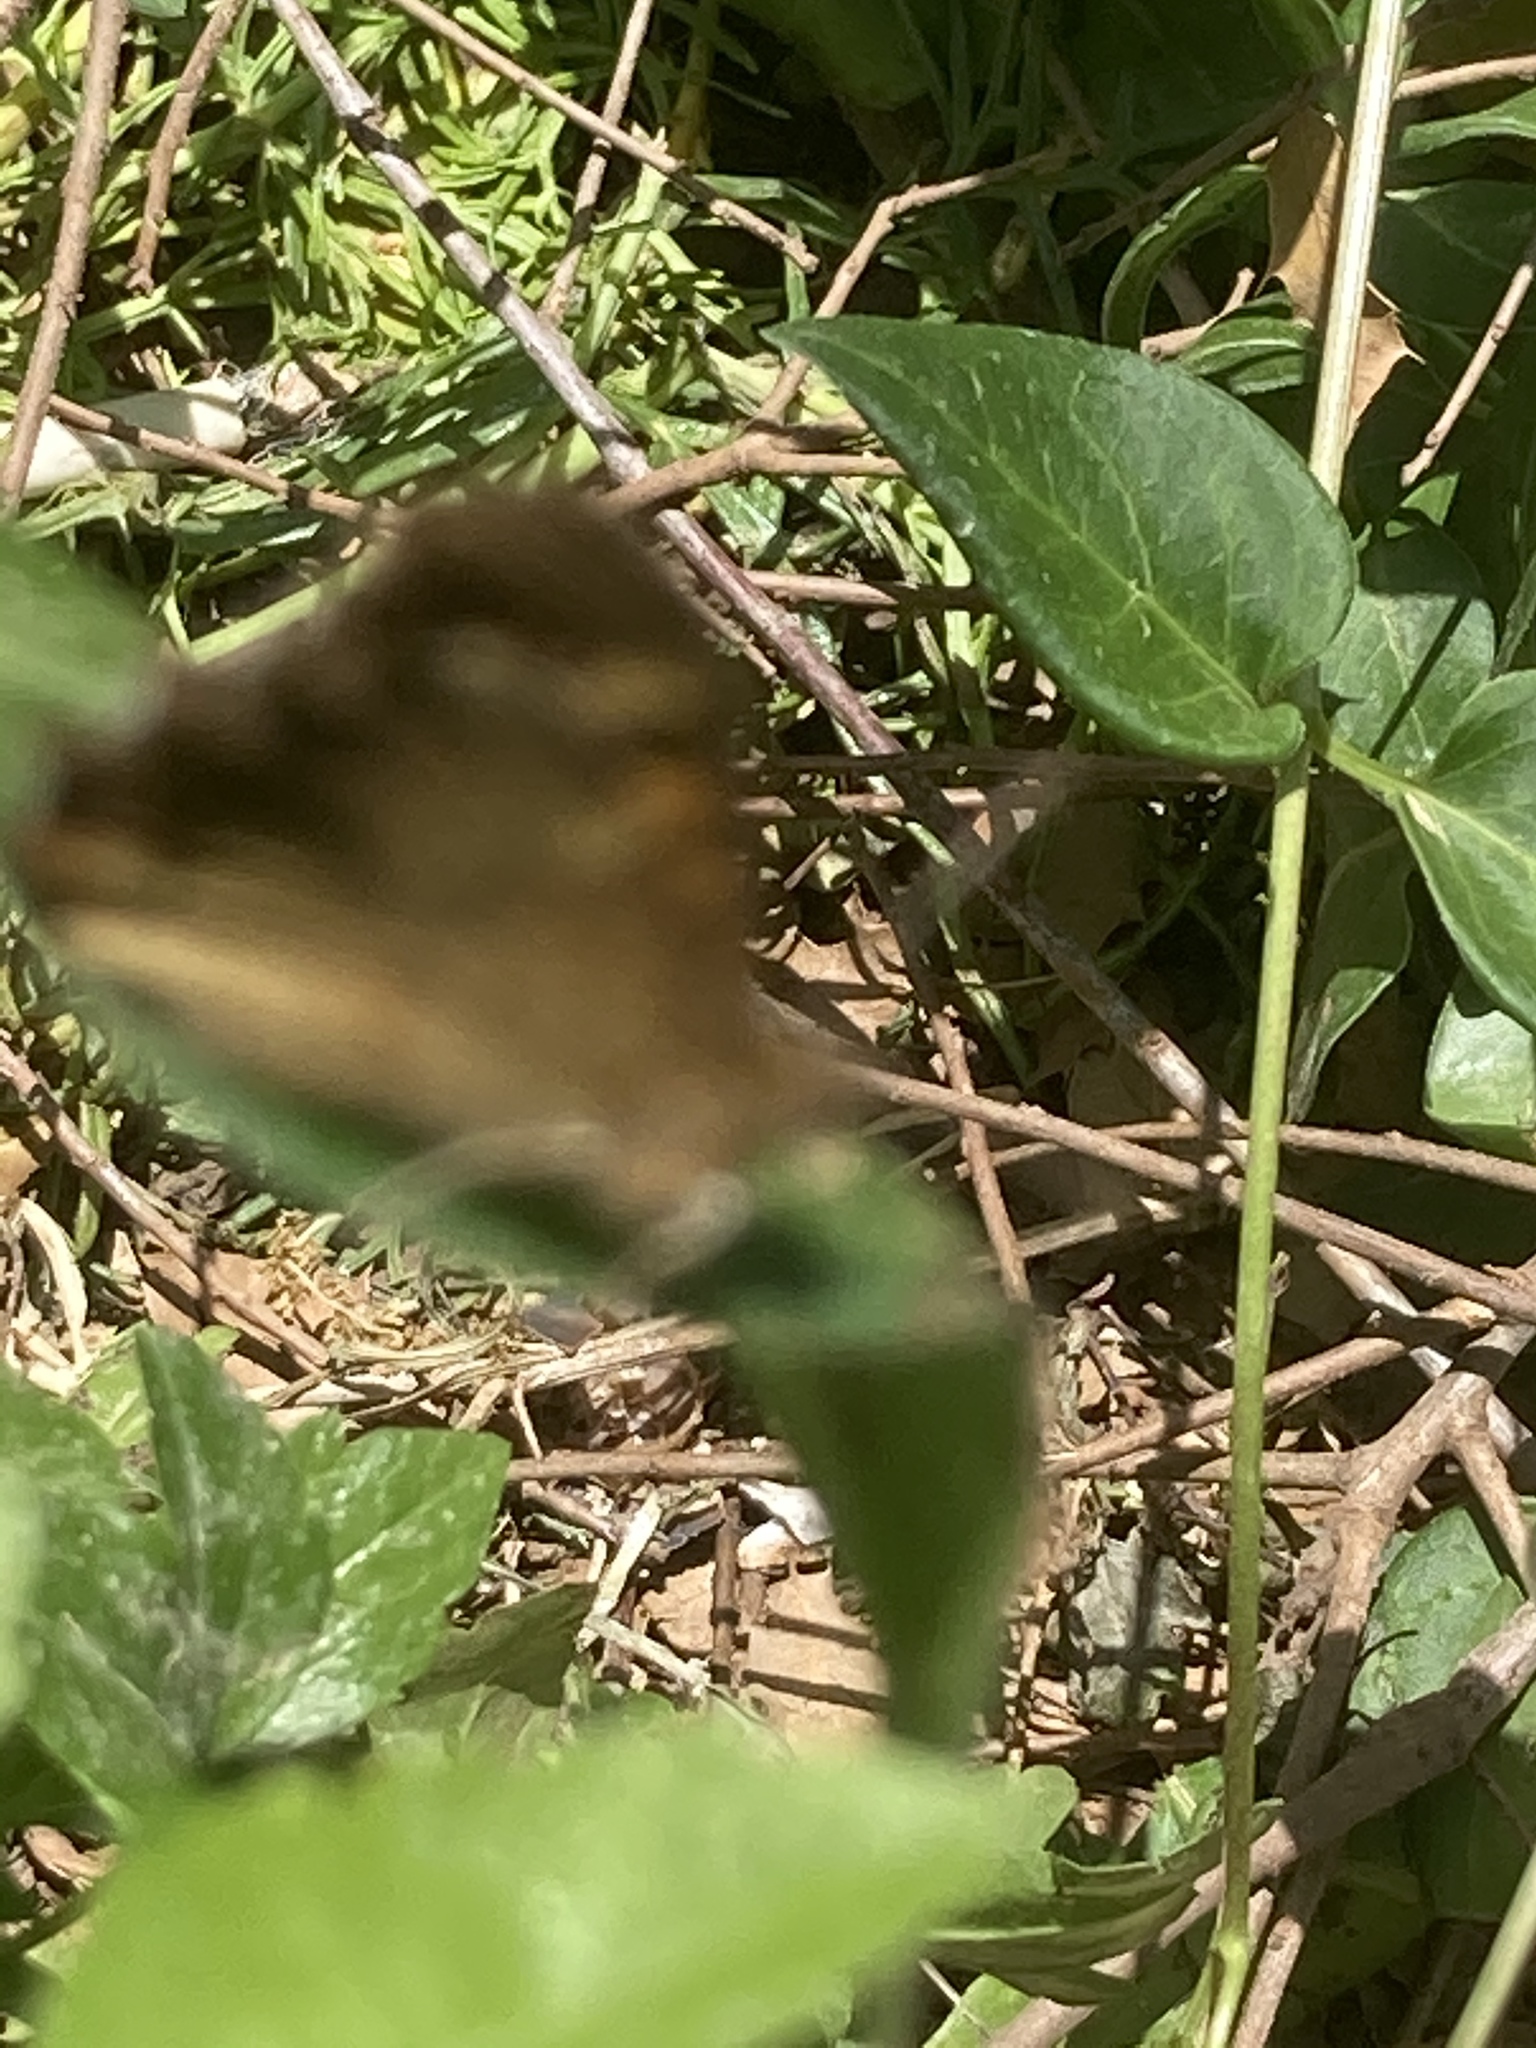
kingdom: Animalia
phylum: Arthropoda
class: Insecta
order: Lepidoptera
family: Nymphalidae
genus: Pararge
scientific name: Pararge aegeria
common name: Speckled wood
